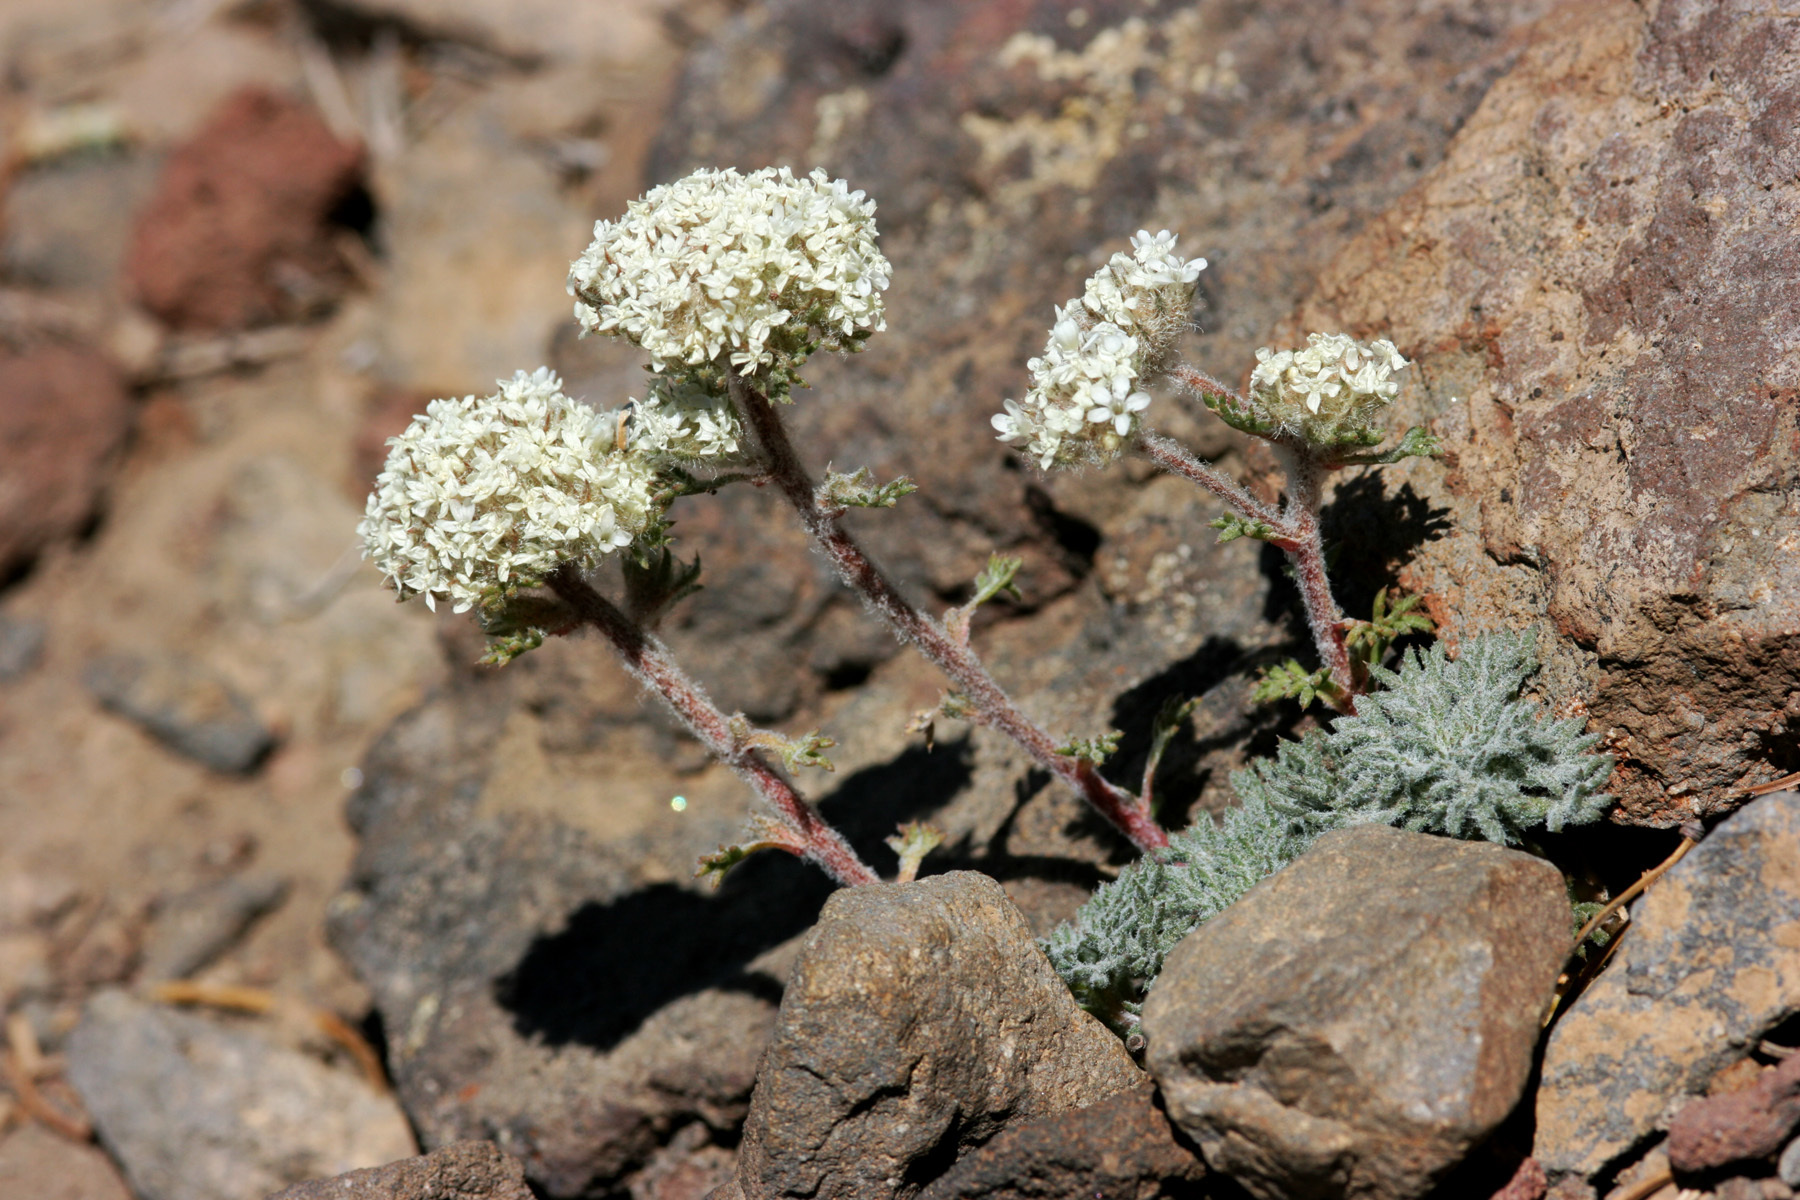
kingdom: Plantae
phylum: Tracheophyta
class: Magnoliopsida
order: Ericales
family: Polemoniaceae
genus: Ipomopsis
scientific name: Ipomopsis congesta
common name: Ball-head gilia
